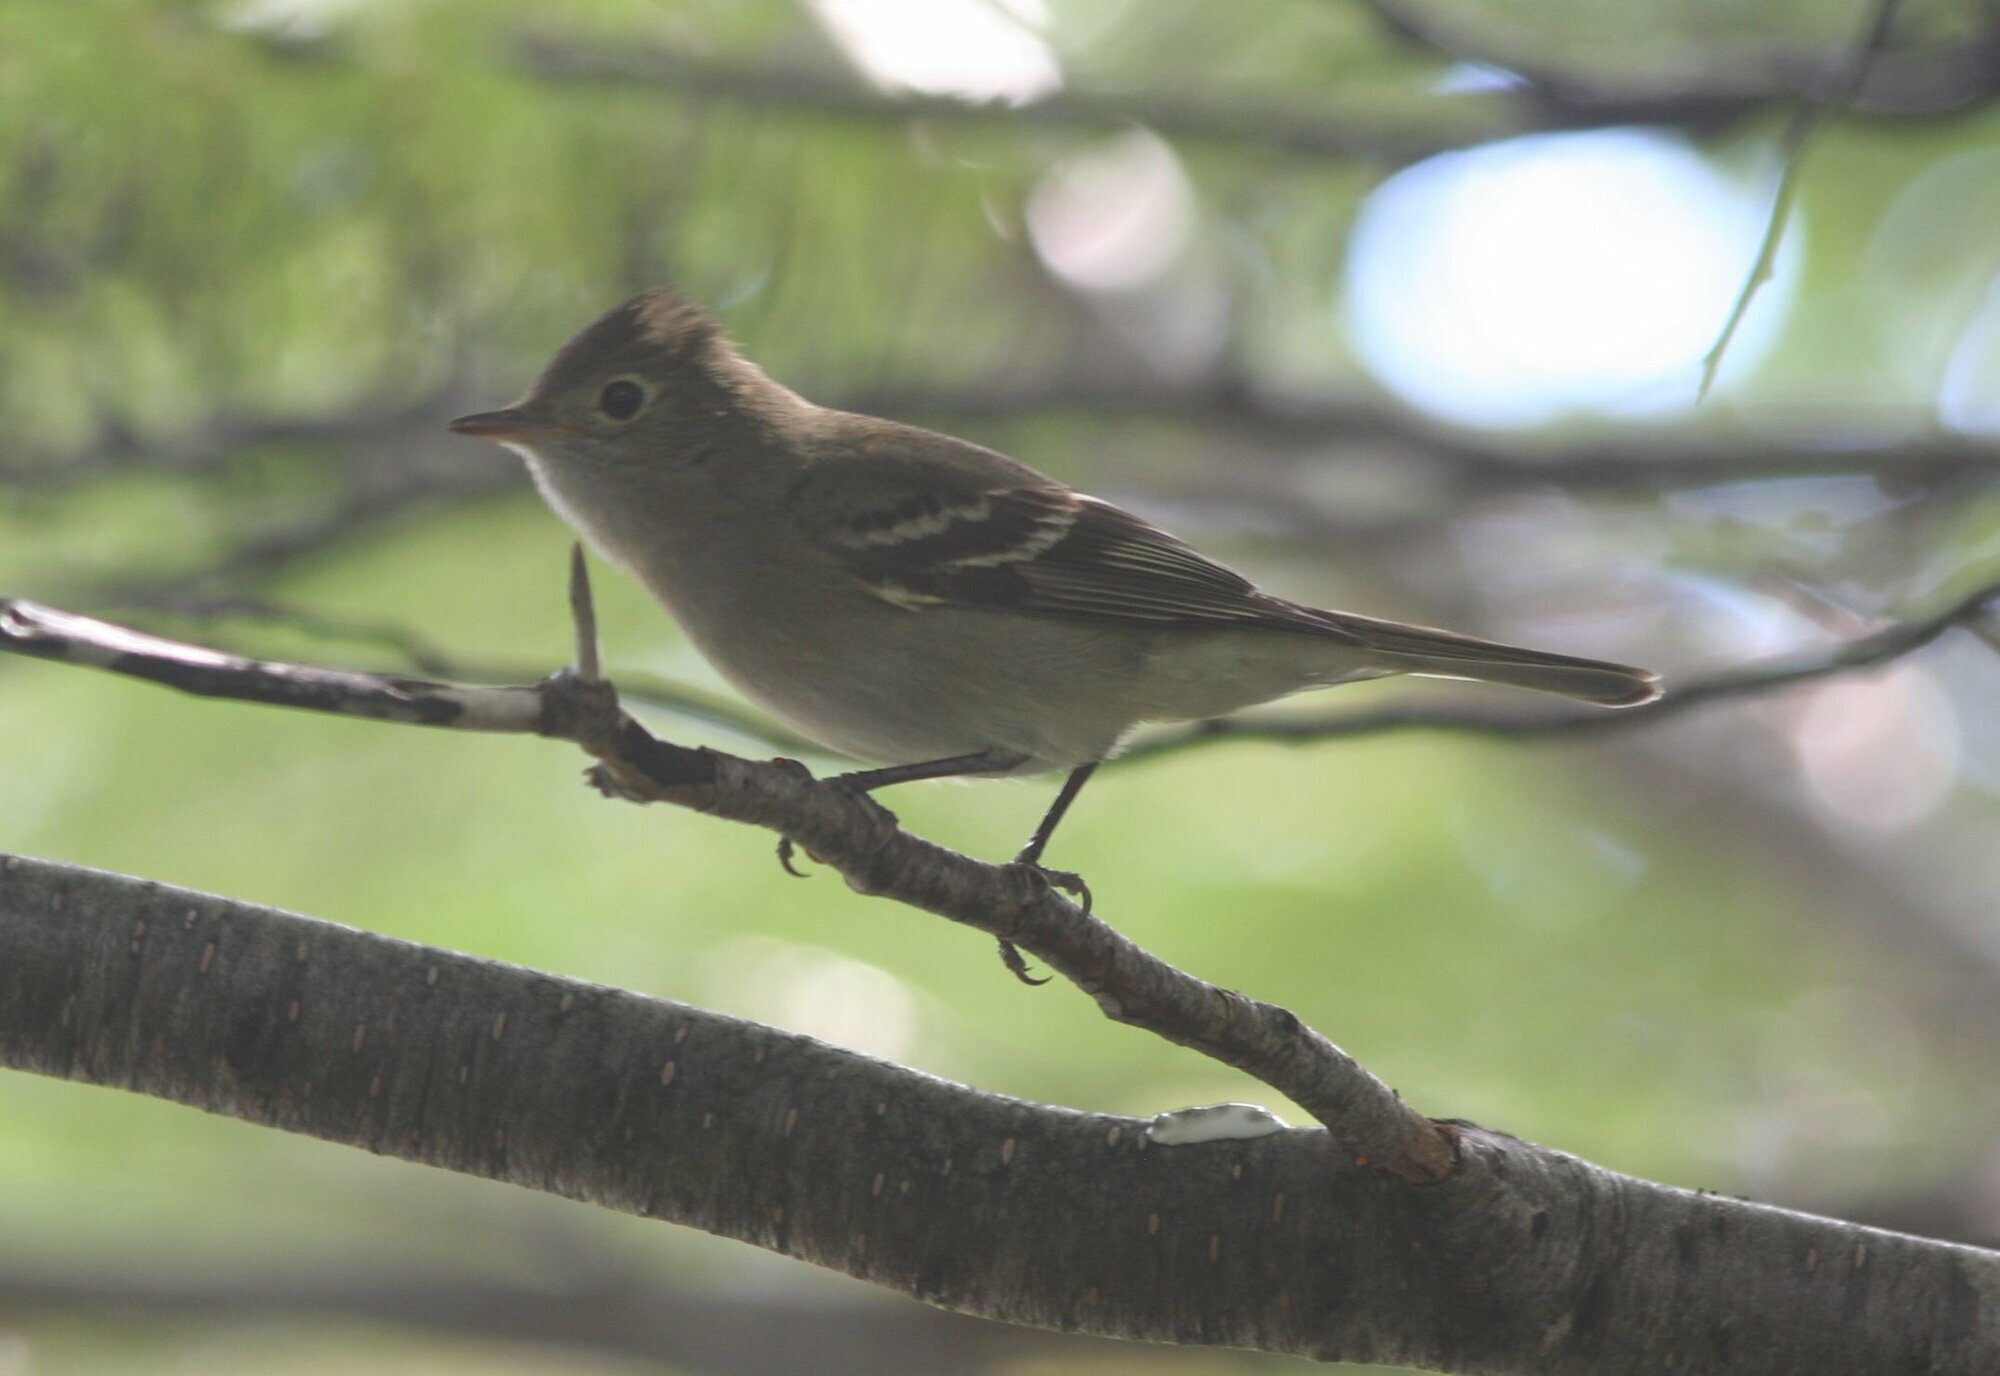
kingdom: Animalia
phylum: Chordata
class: Aves
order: Passeriformes
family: Tyrannidae
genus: Elaenia
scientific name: Elaenia albiceps
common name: White-crested elaenia
